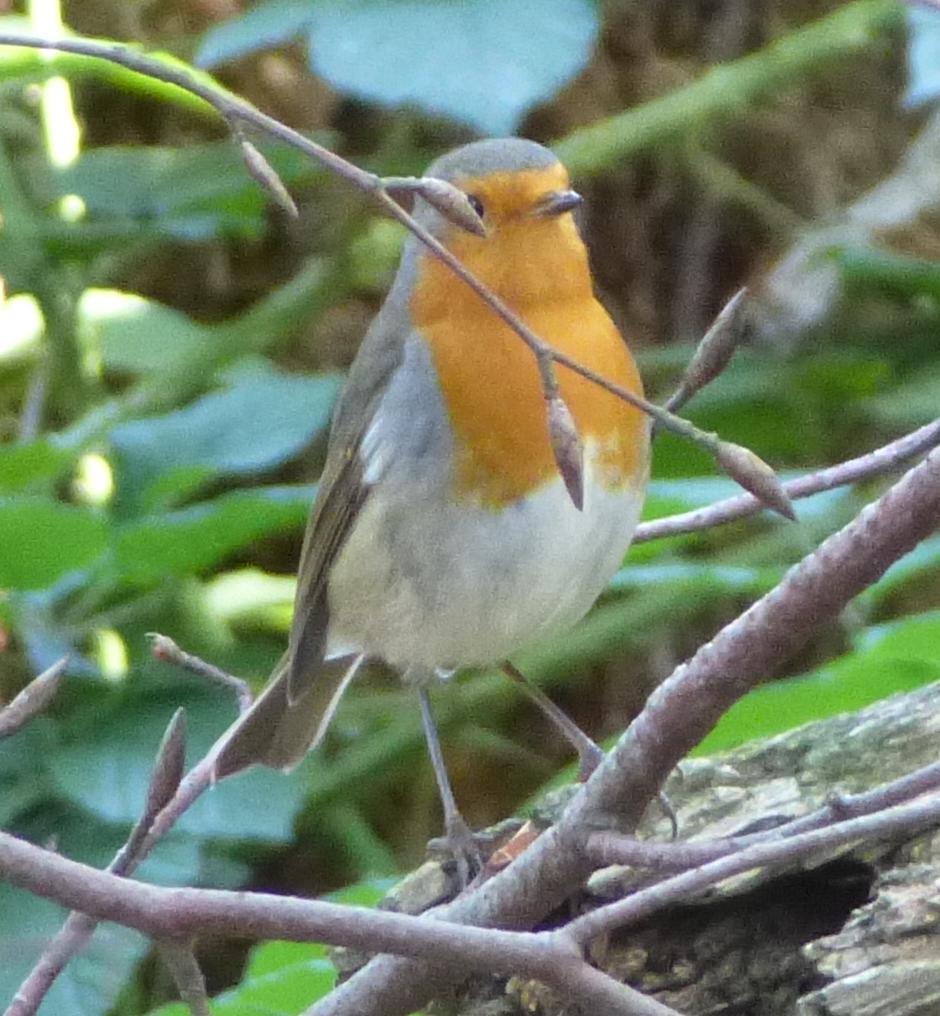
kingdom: Animalia
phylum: Chordata
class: Aves
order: Passeriformes
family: Muscicapidae
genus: Erithacus
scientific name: Erithacus rubecula
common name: European robin
